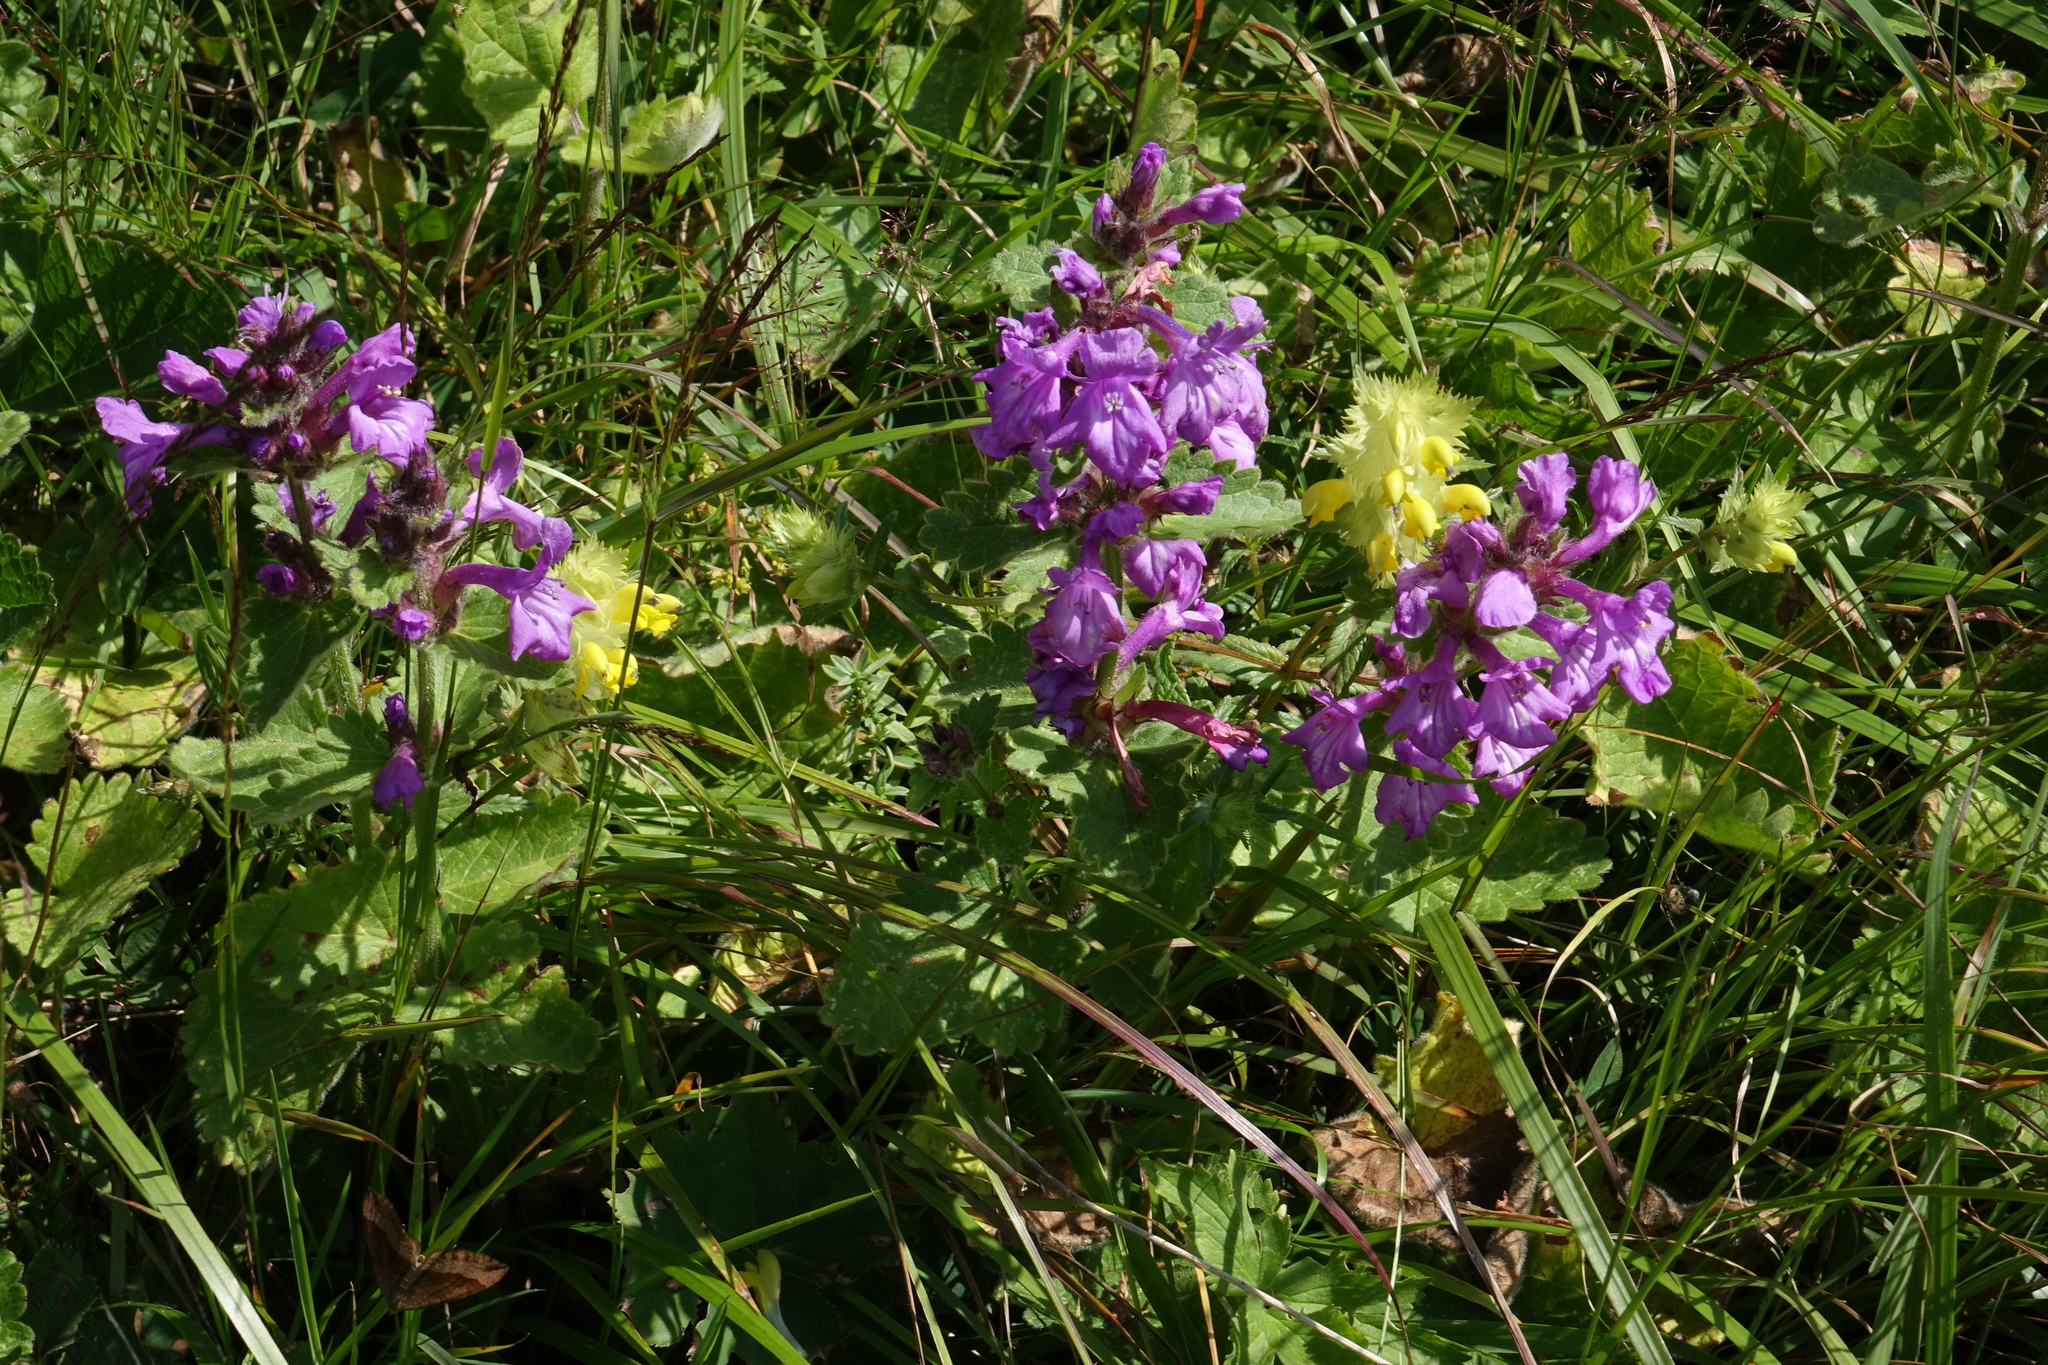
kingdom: Plantae
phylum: Tracheophyta
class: Magnoliopsida
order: Lamiales
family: Lamiaceae
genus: Betonica
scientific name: Betonica macrantha
